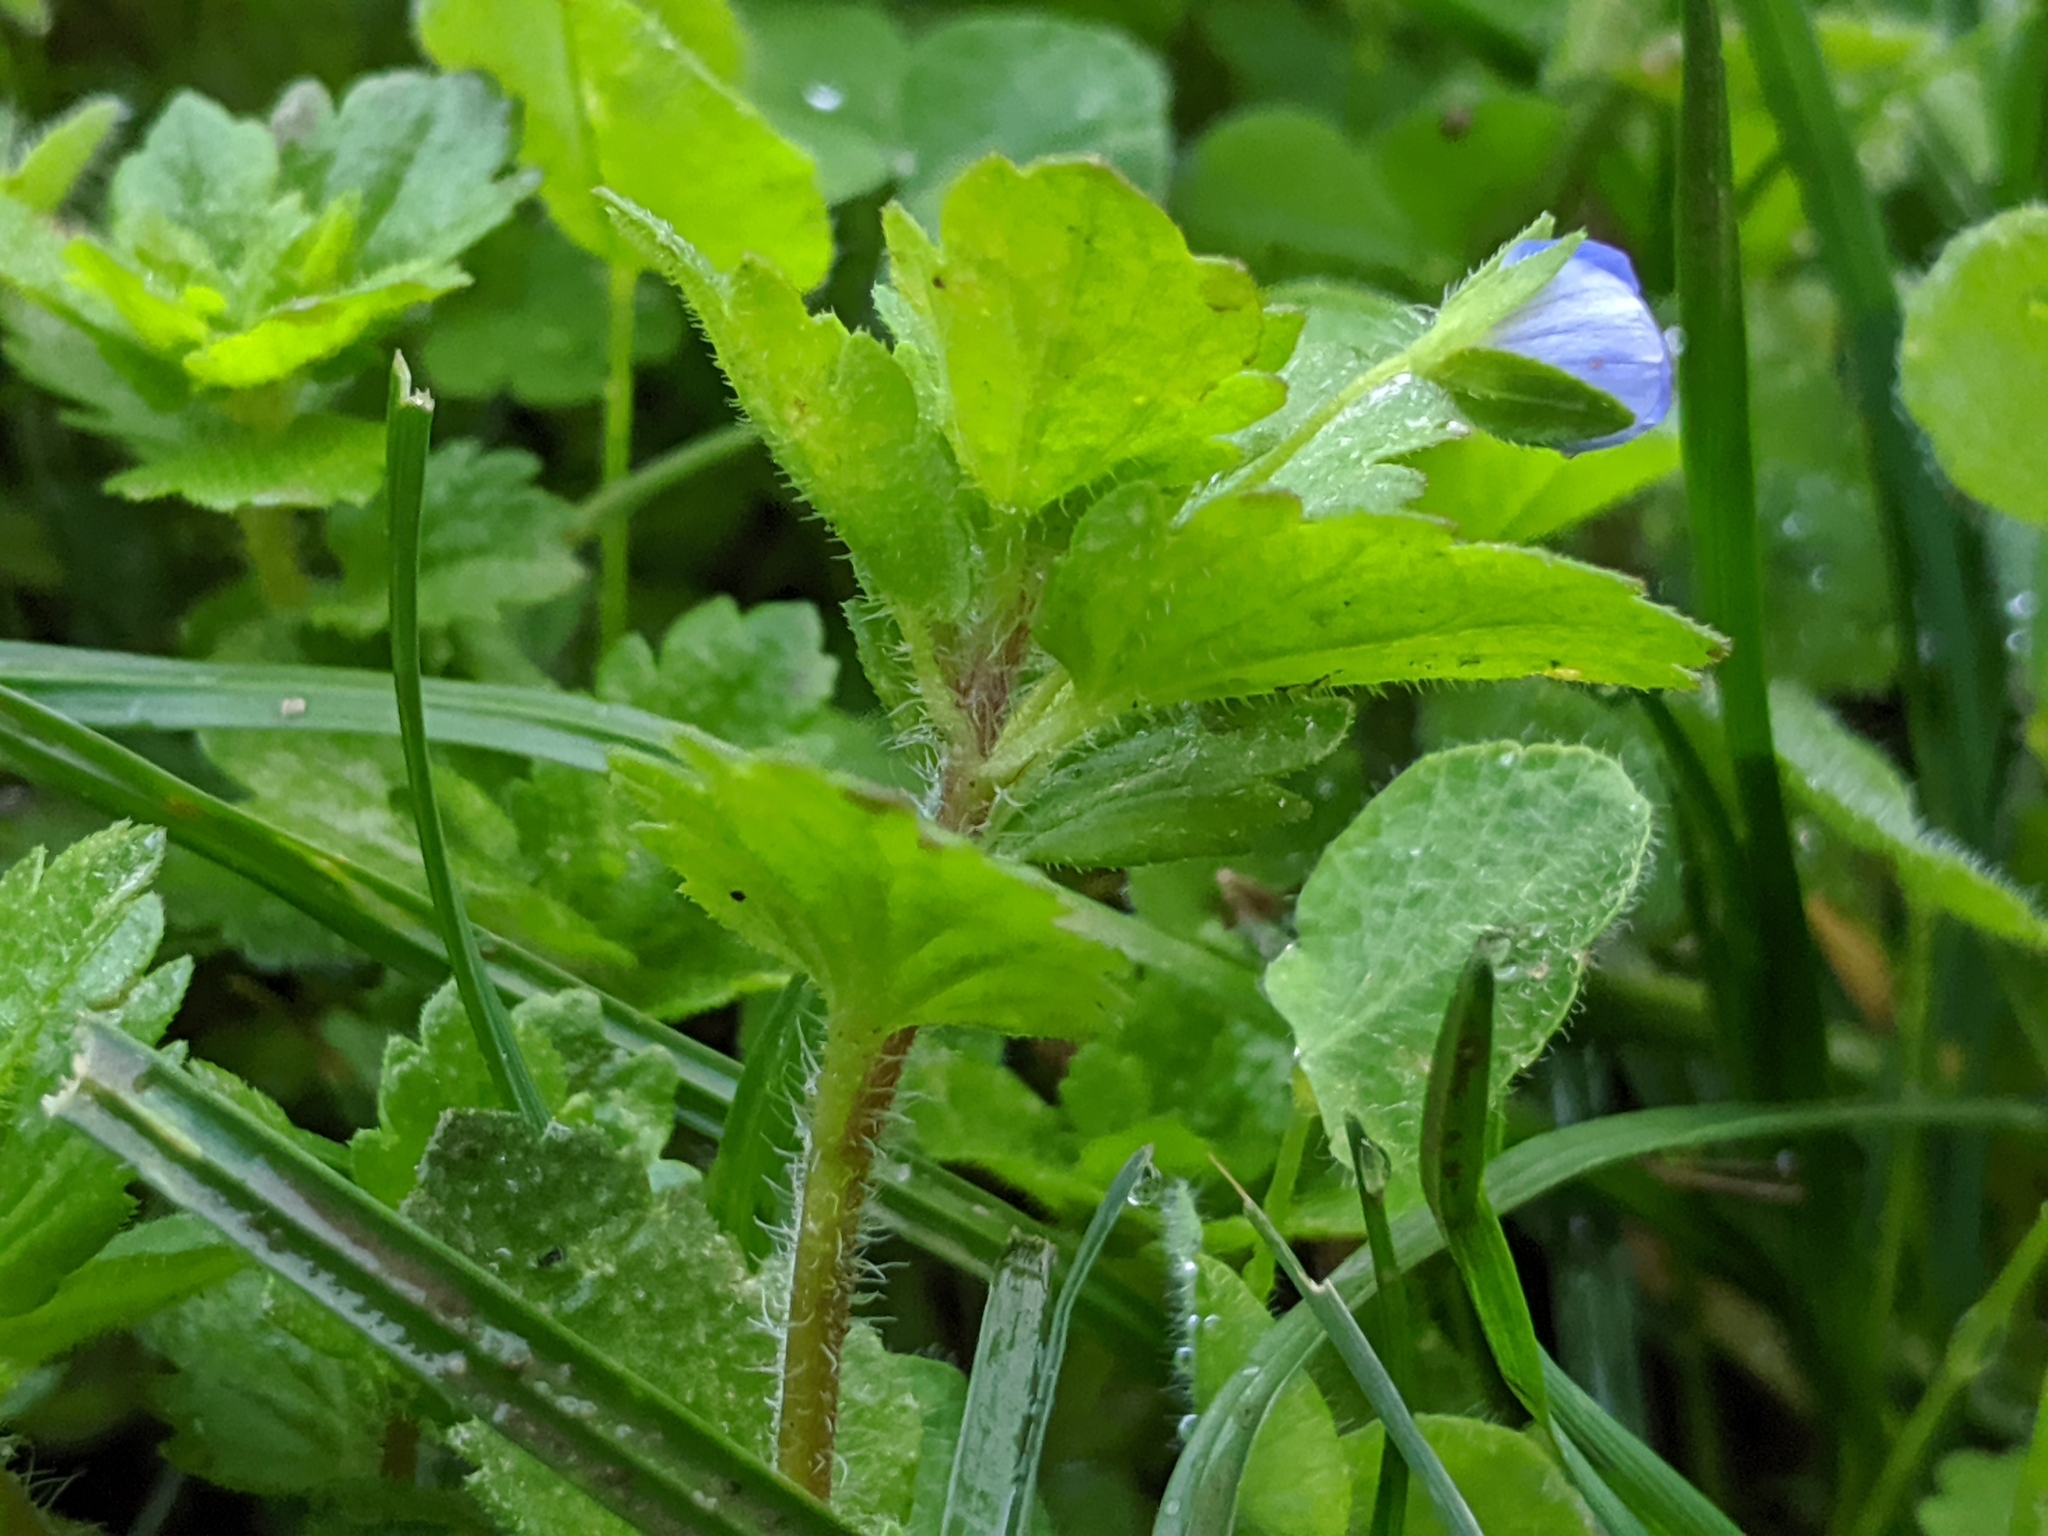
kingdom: Plantae
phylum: Tracheophyta
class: Magnoliopsida
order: Lamiales
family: Plantaginaceae
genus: Veronica
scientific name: Veronica persica
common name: Common field-speedwell
